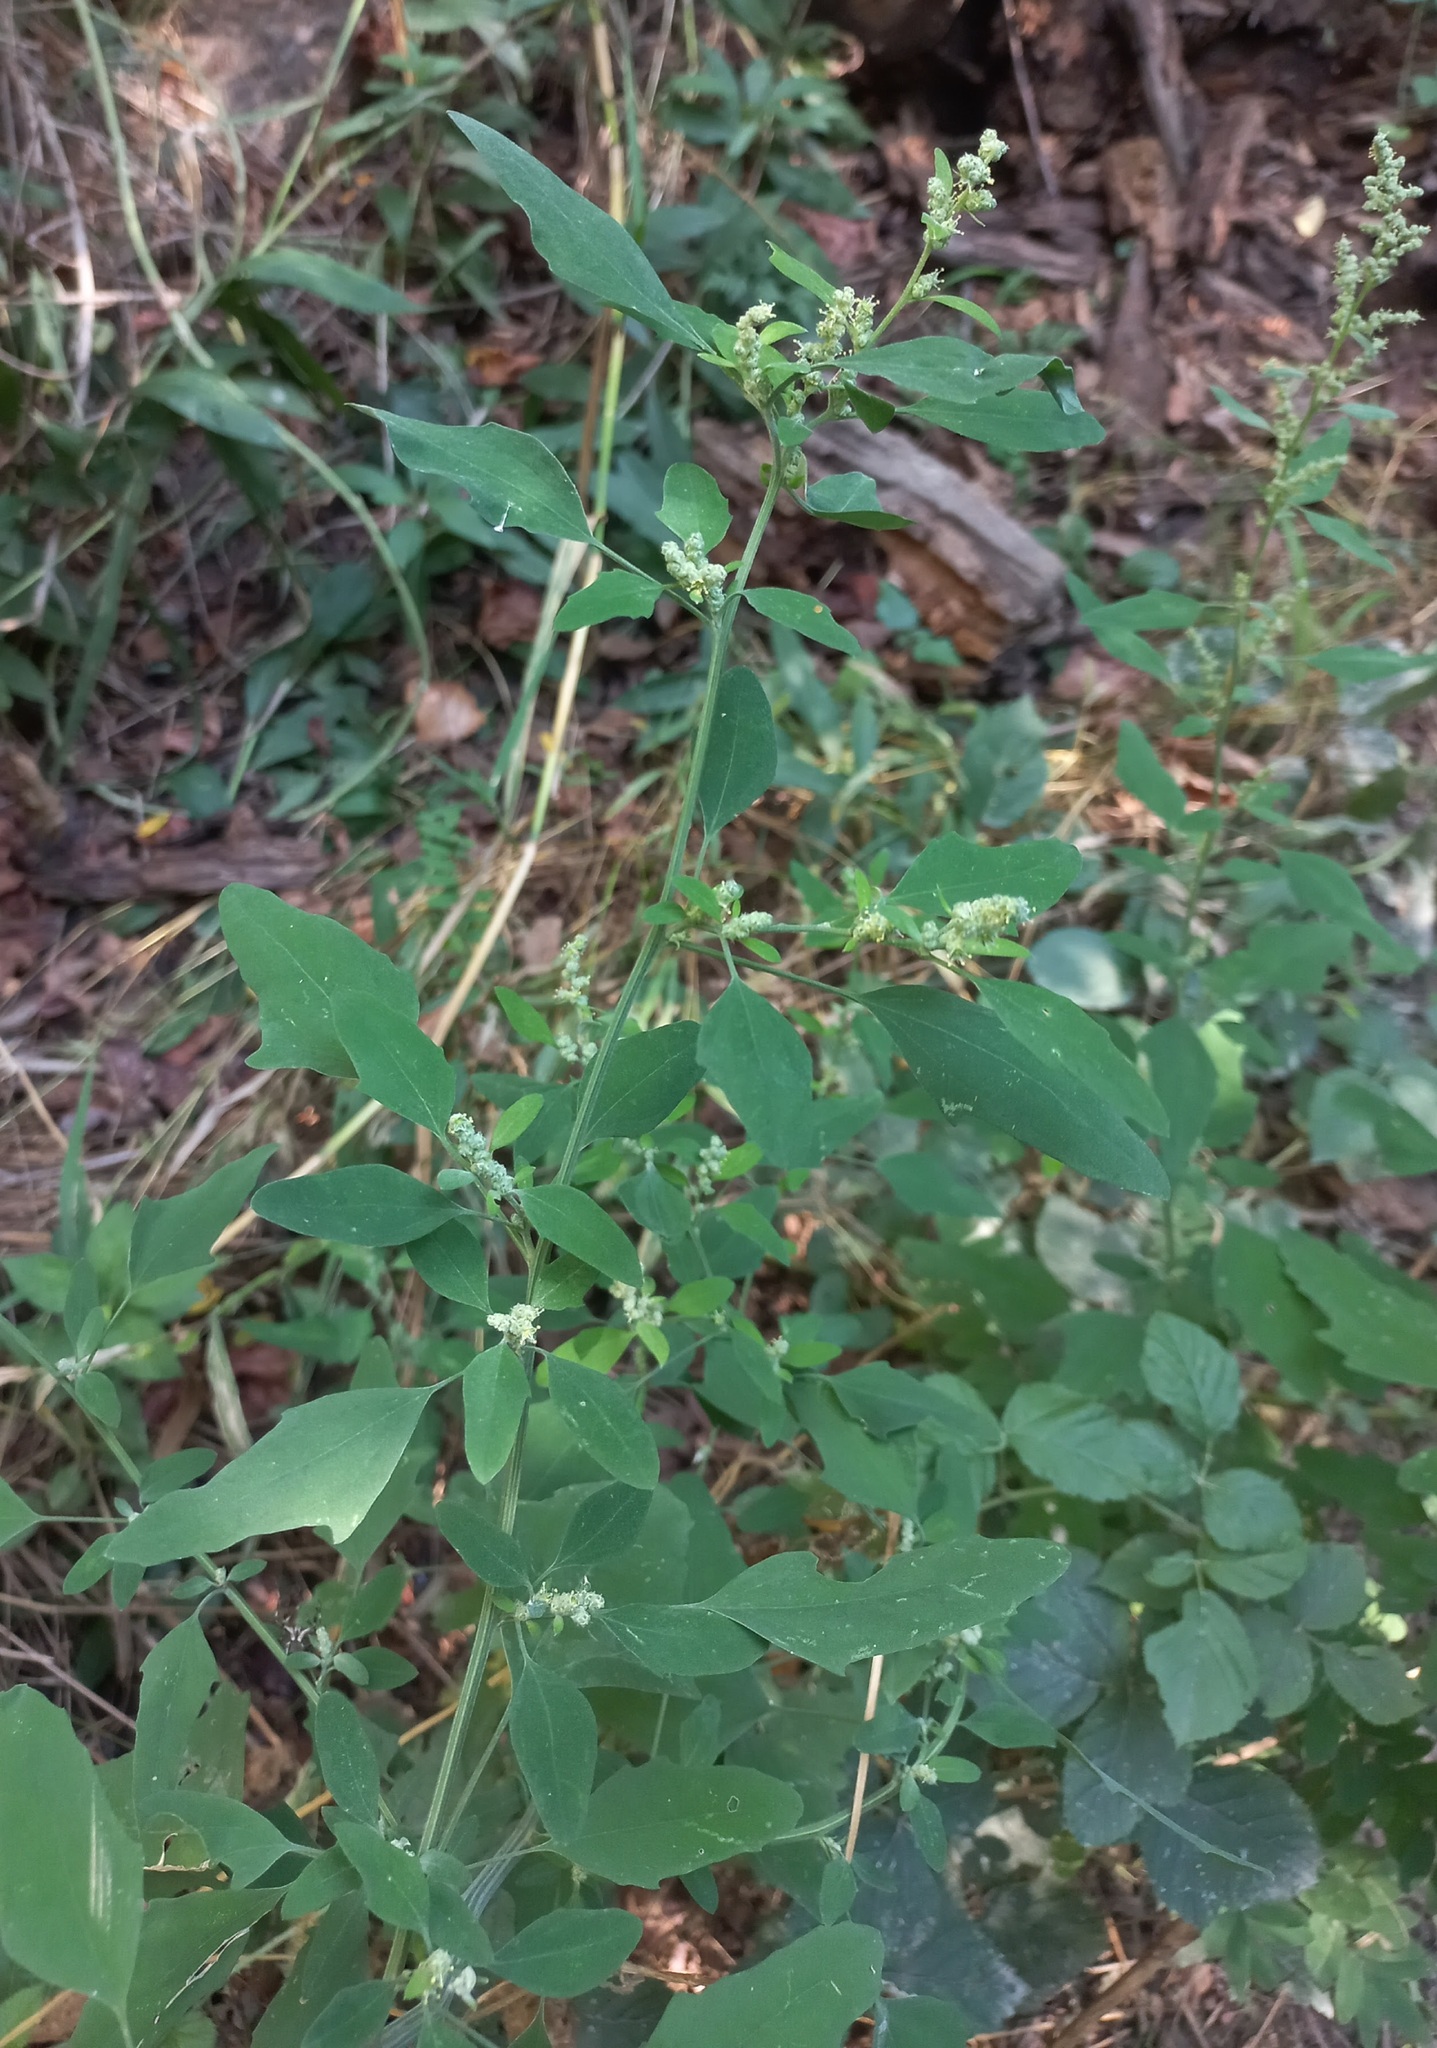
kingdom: Plantae
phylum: Tracheophyta
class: Magnoliopsida
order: Caryophyllales
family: Amaranthaceae
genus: Chenopodium
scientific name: Chenopodium album
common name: Fat-hen
